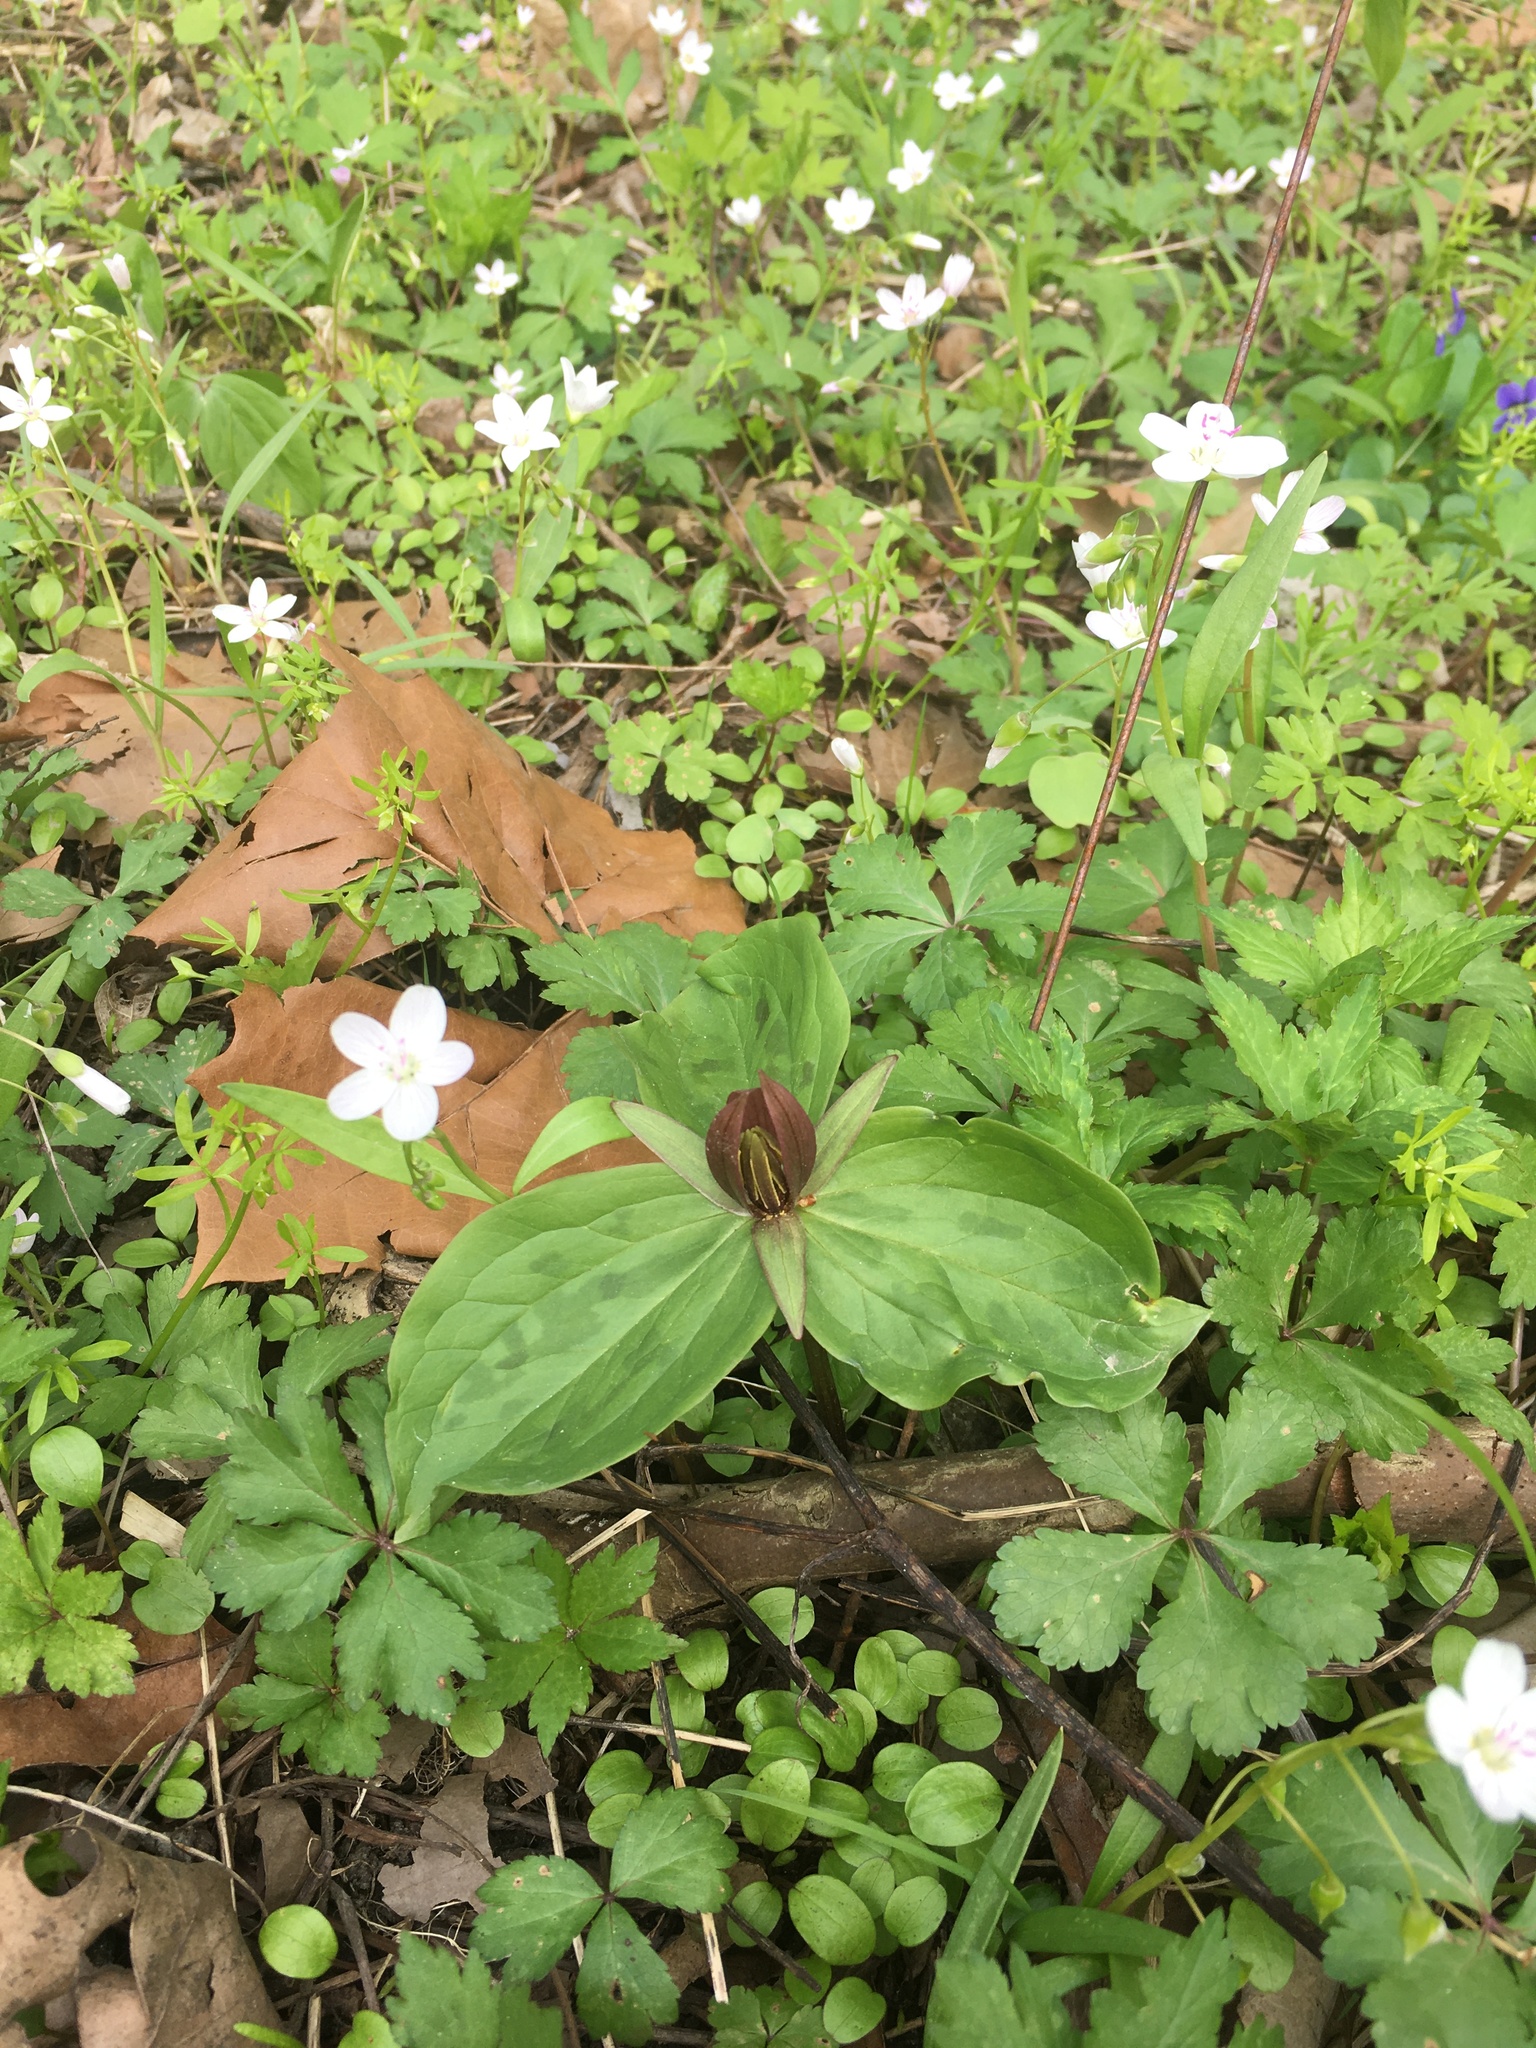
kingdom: Plantae
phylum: Tracheophyta
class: Liliopsida
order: Liliales
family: Melanthiaceae
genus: Trillium
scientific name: Trillium sessile
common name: Sessile trillium
